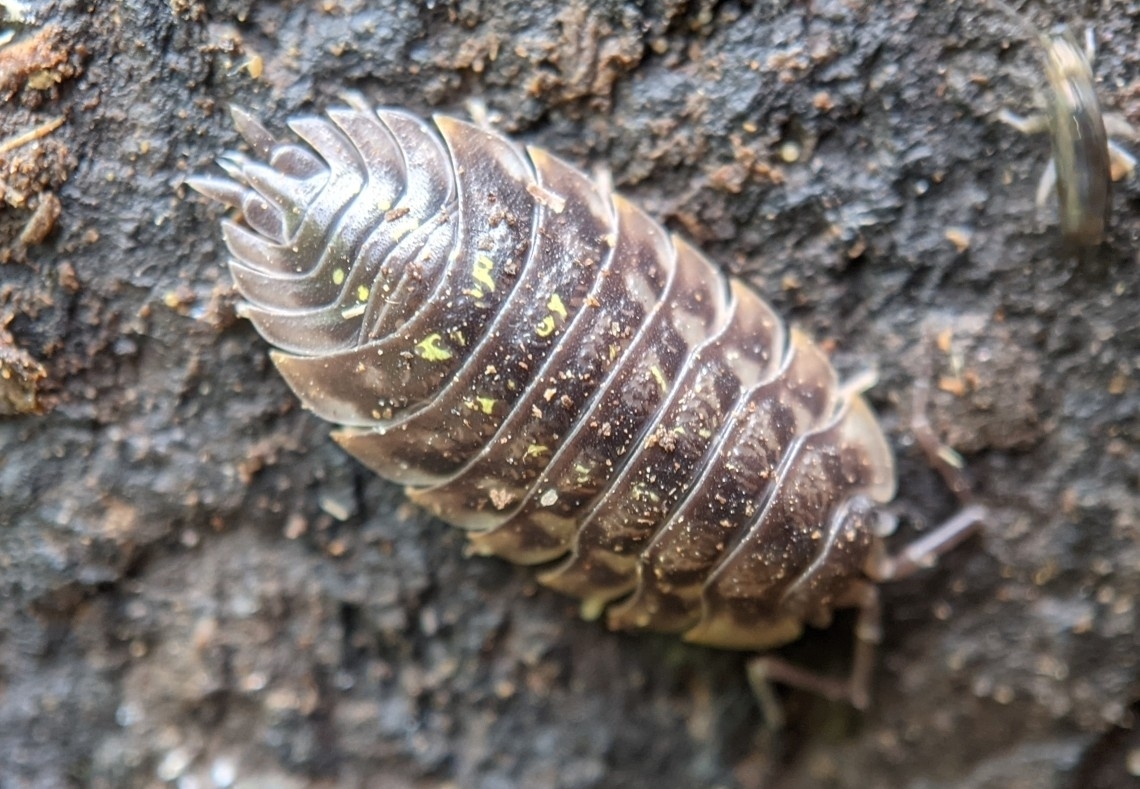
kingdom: Animalia
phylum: Arthropoda
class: Malacostraca
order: Isopoda
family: Oniscidae
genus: Oniscus
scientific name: Oniscus asellus
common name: Common shiny woodlouse
